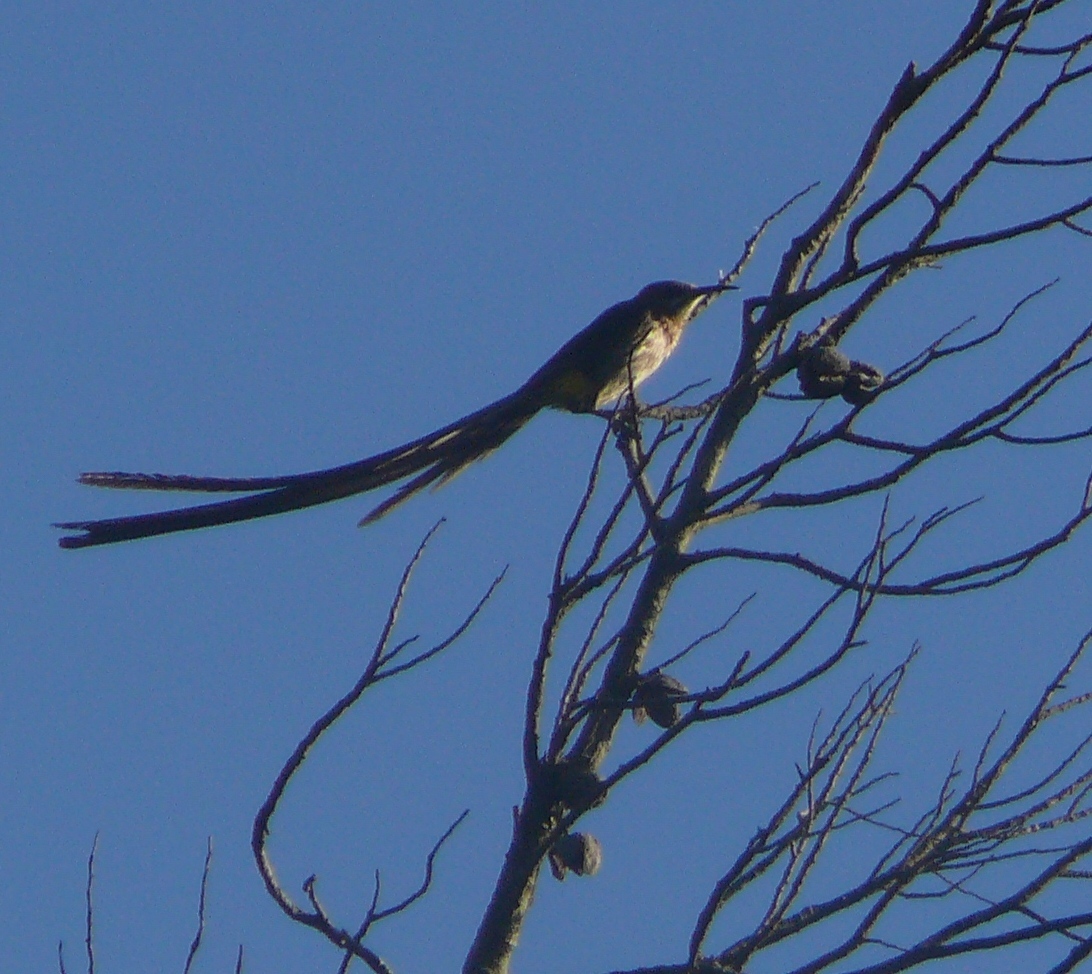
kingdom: Animalia
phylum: Chordata
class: Aves
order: Passeriformes
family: Promeropidae
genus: Promerops
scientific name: Promerops cafer
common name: Cape sugarbird
